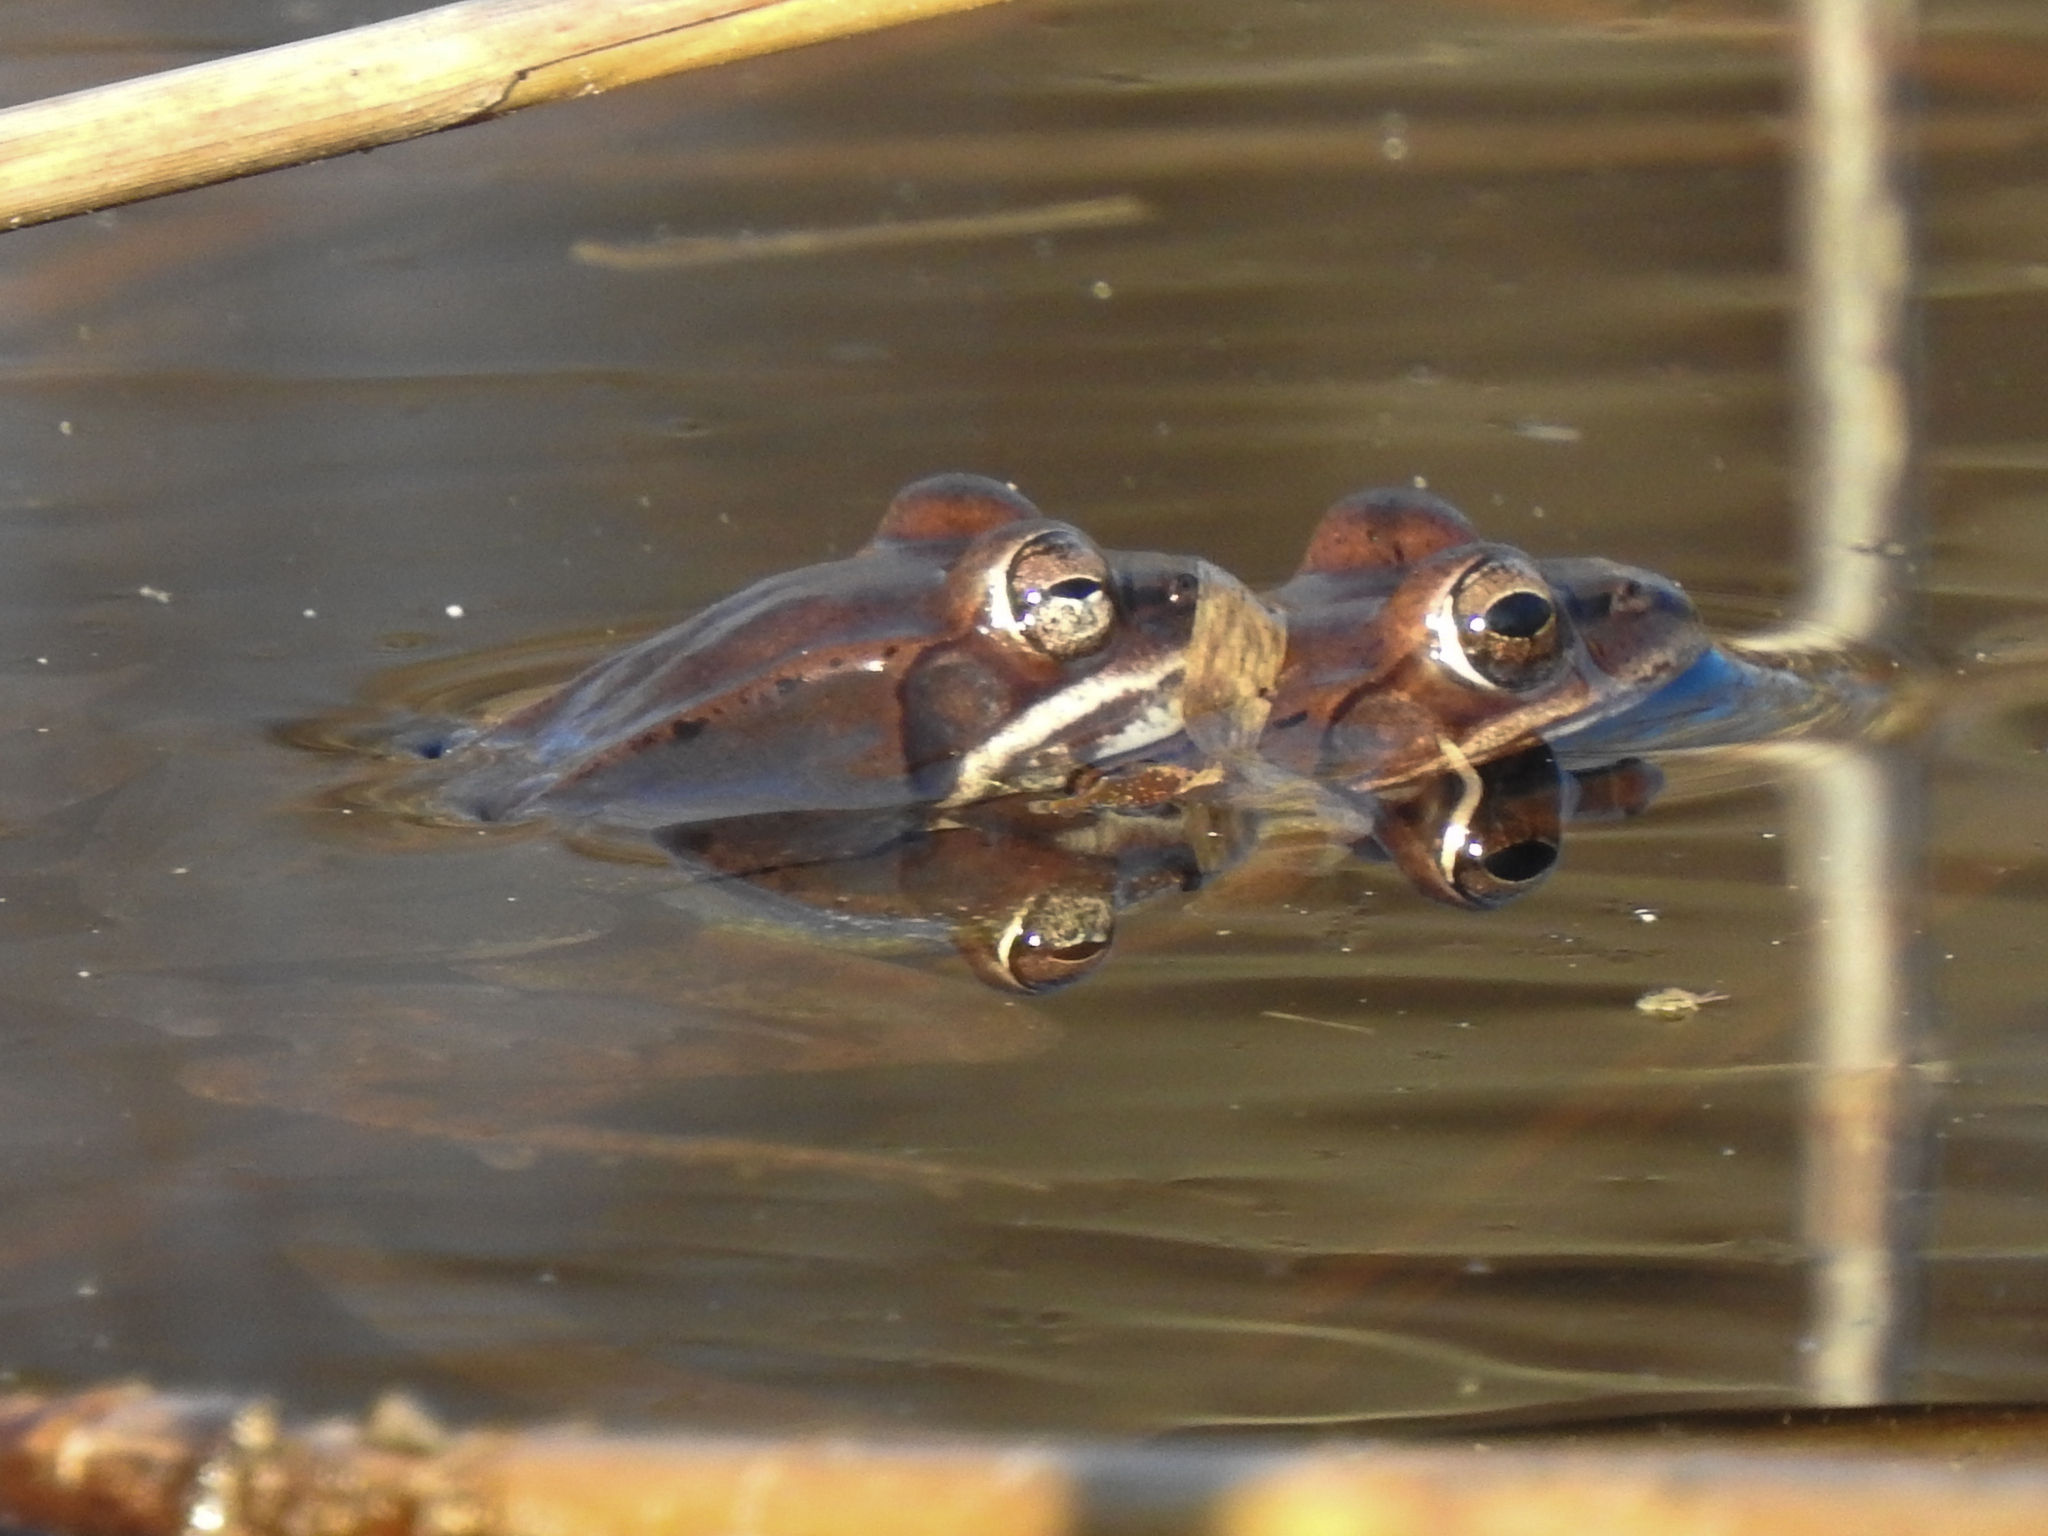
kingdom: Animalia
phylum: Chordata
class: Amphibia
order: Anura
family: Ranidae
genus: Lithobates
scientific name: Lithobates sylvaticus
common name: Wood frog
